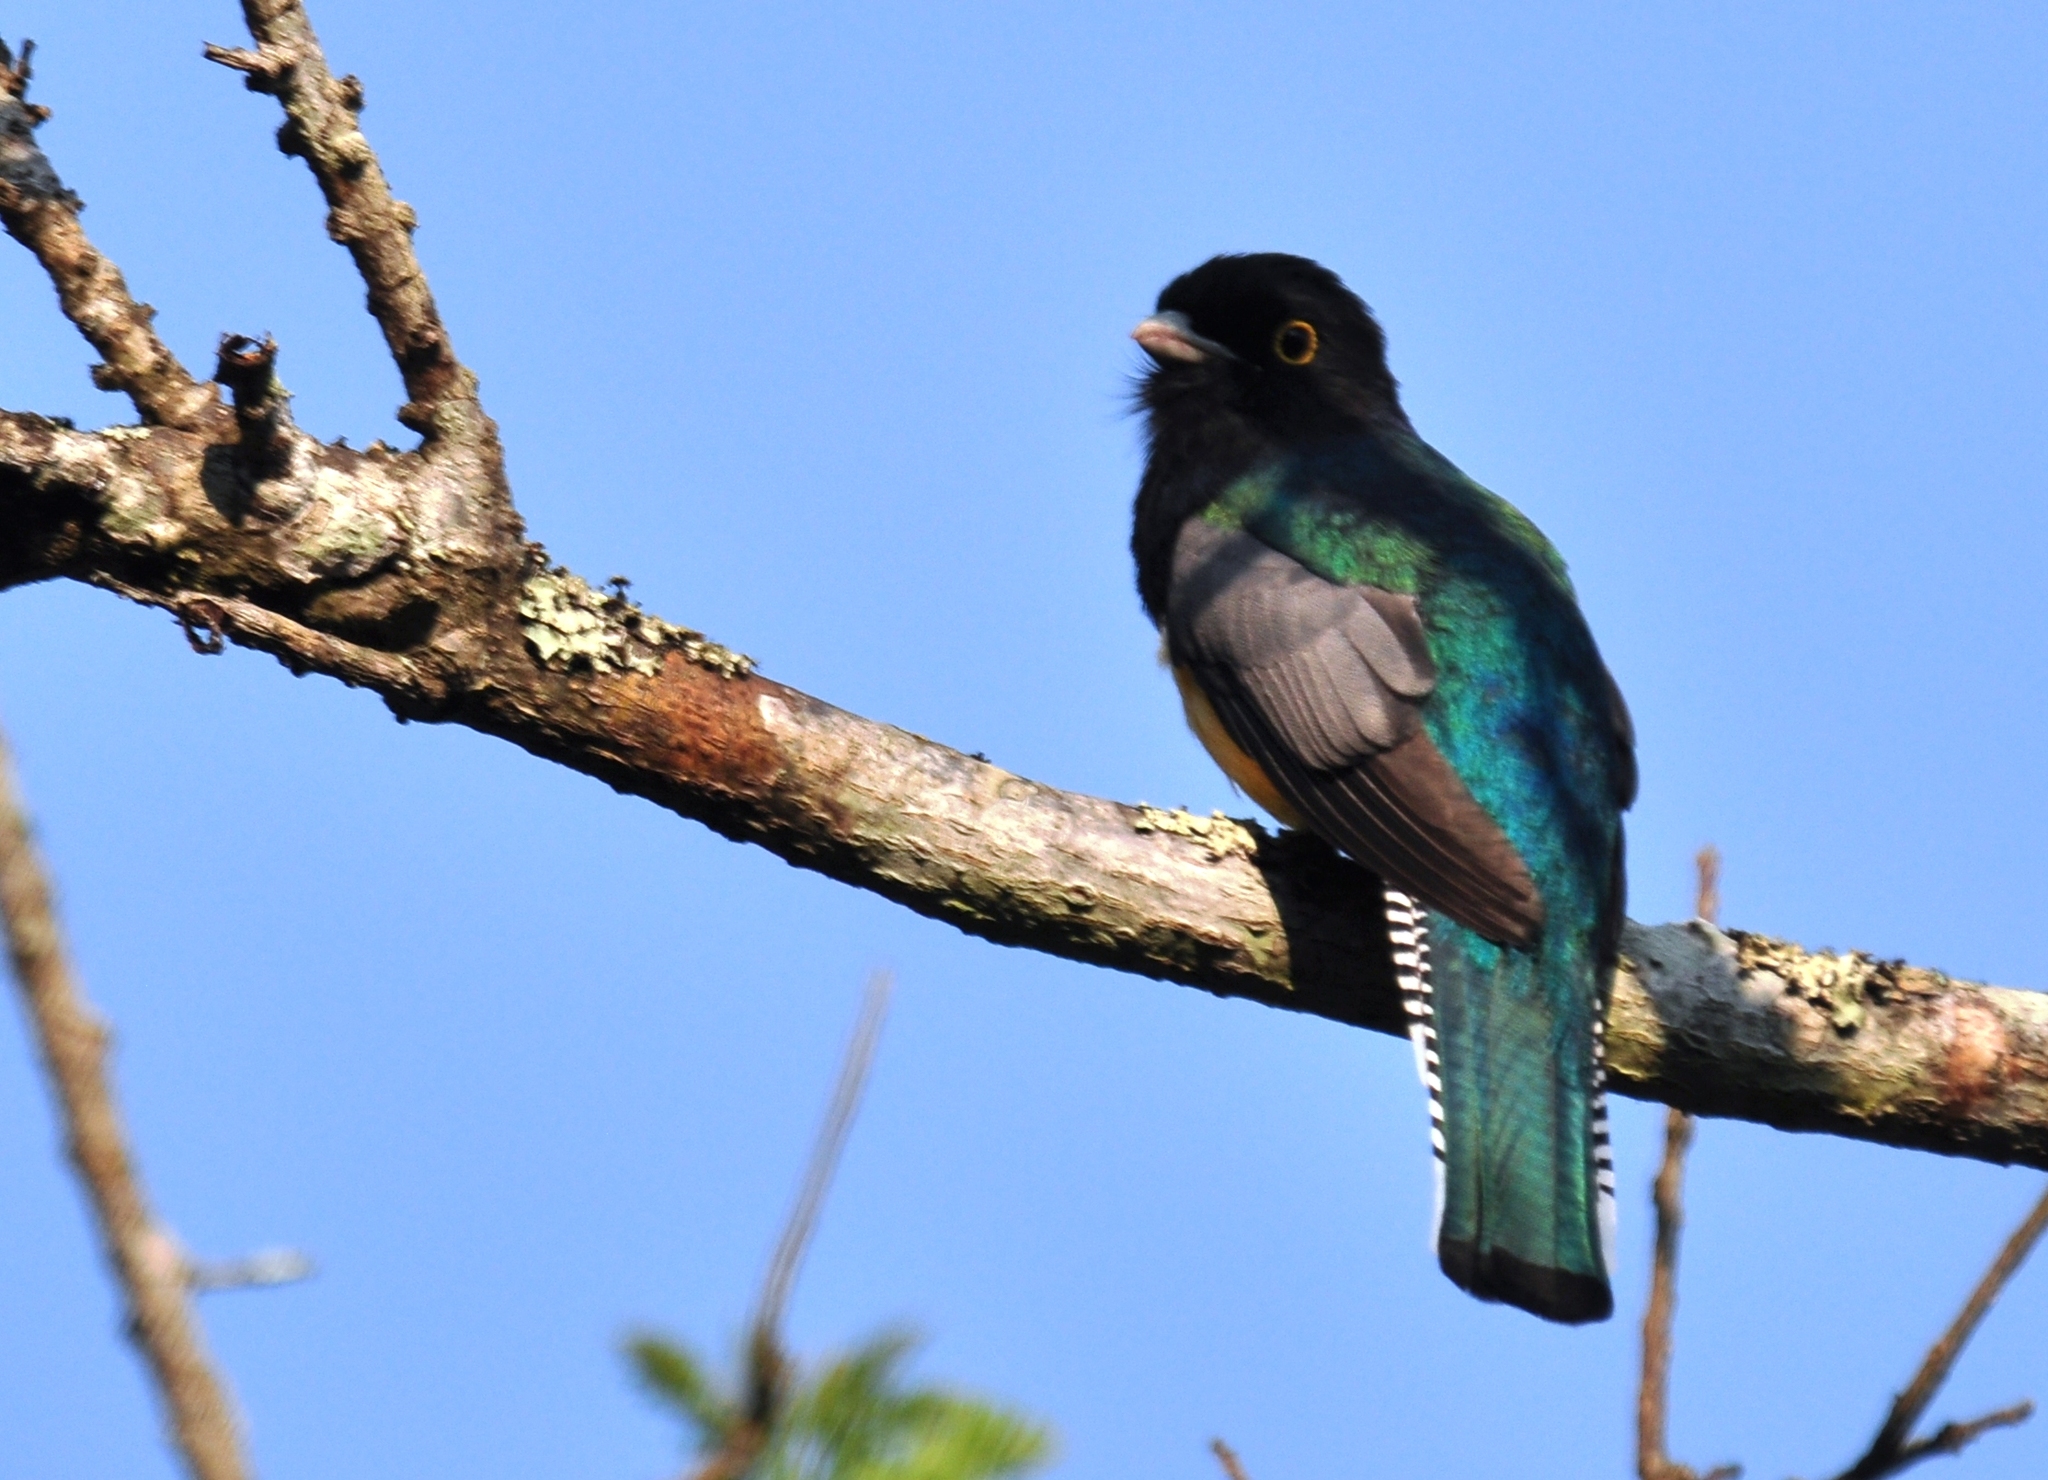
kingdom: Animalia
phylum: Chordata
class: Aves
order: Trogoniformes
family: Trogonidae
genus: Trogon
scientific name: Trogon caligatus
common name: Gartered trogon
